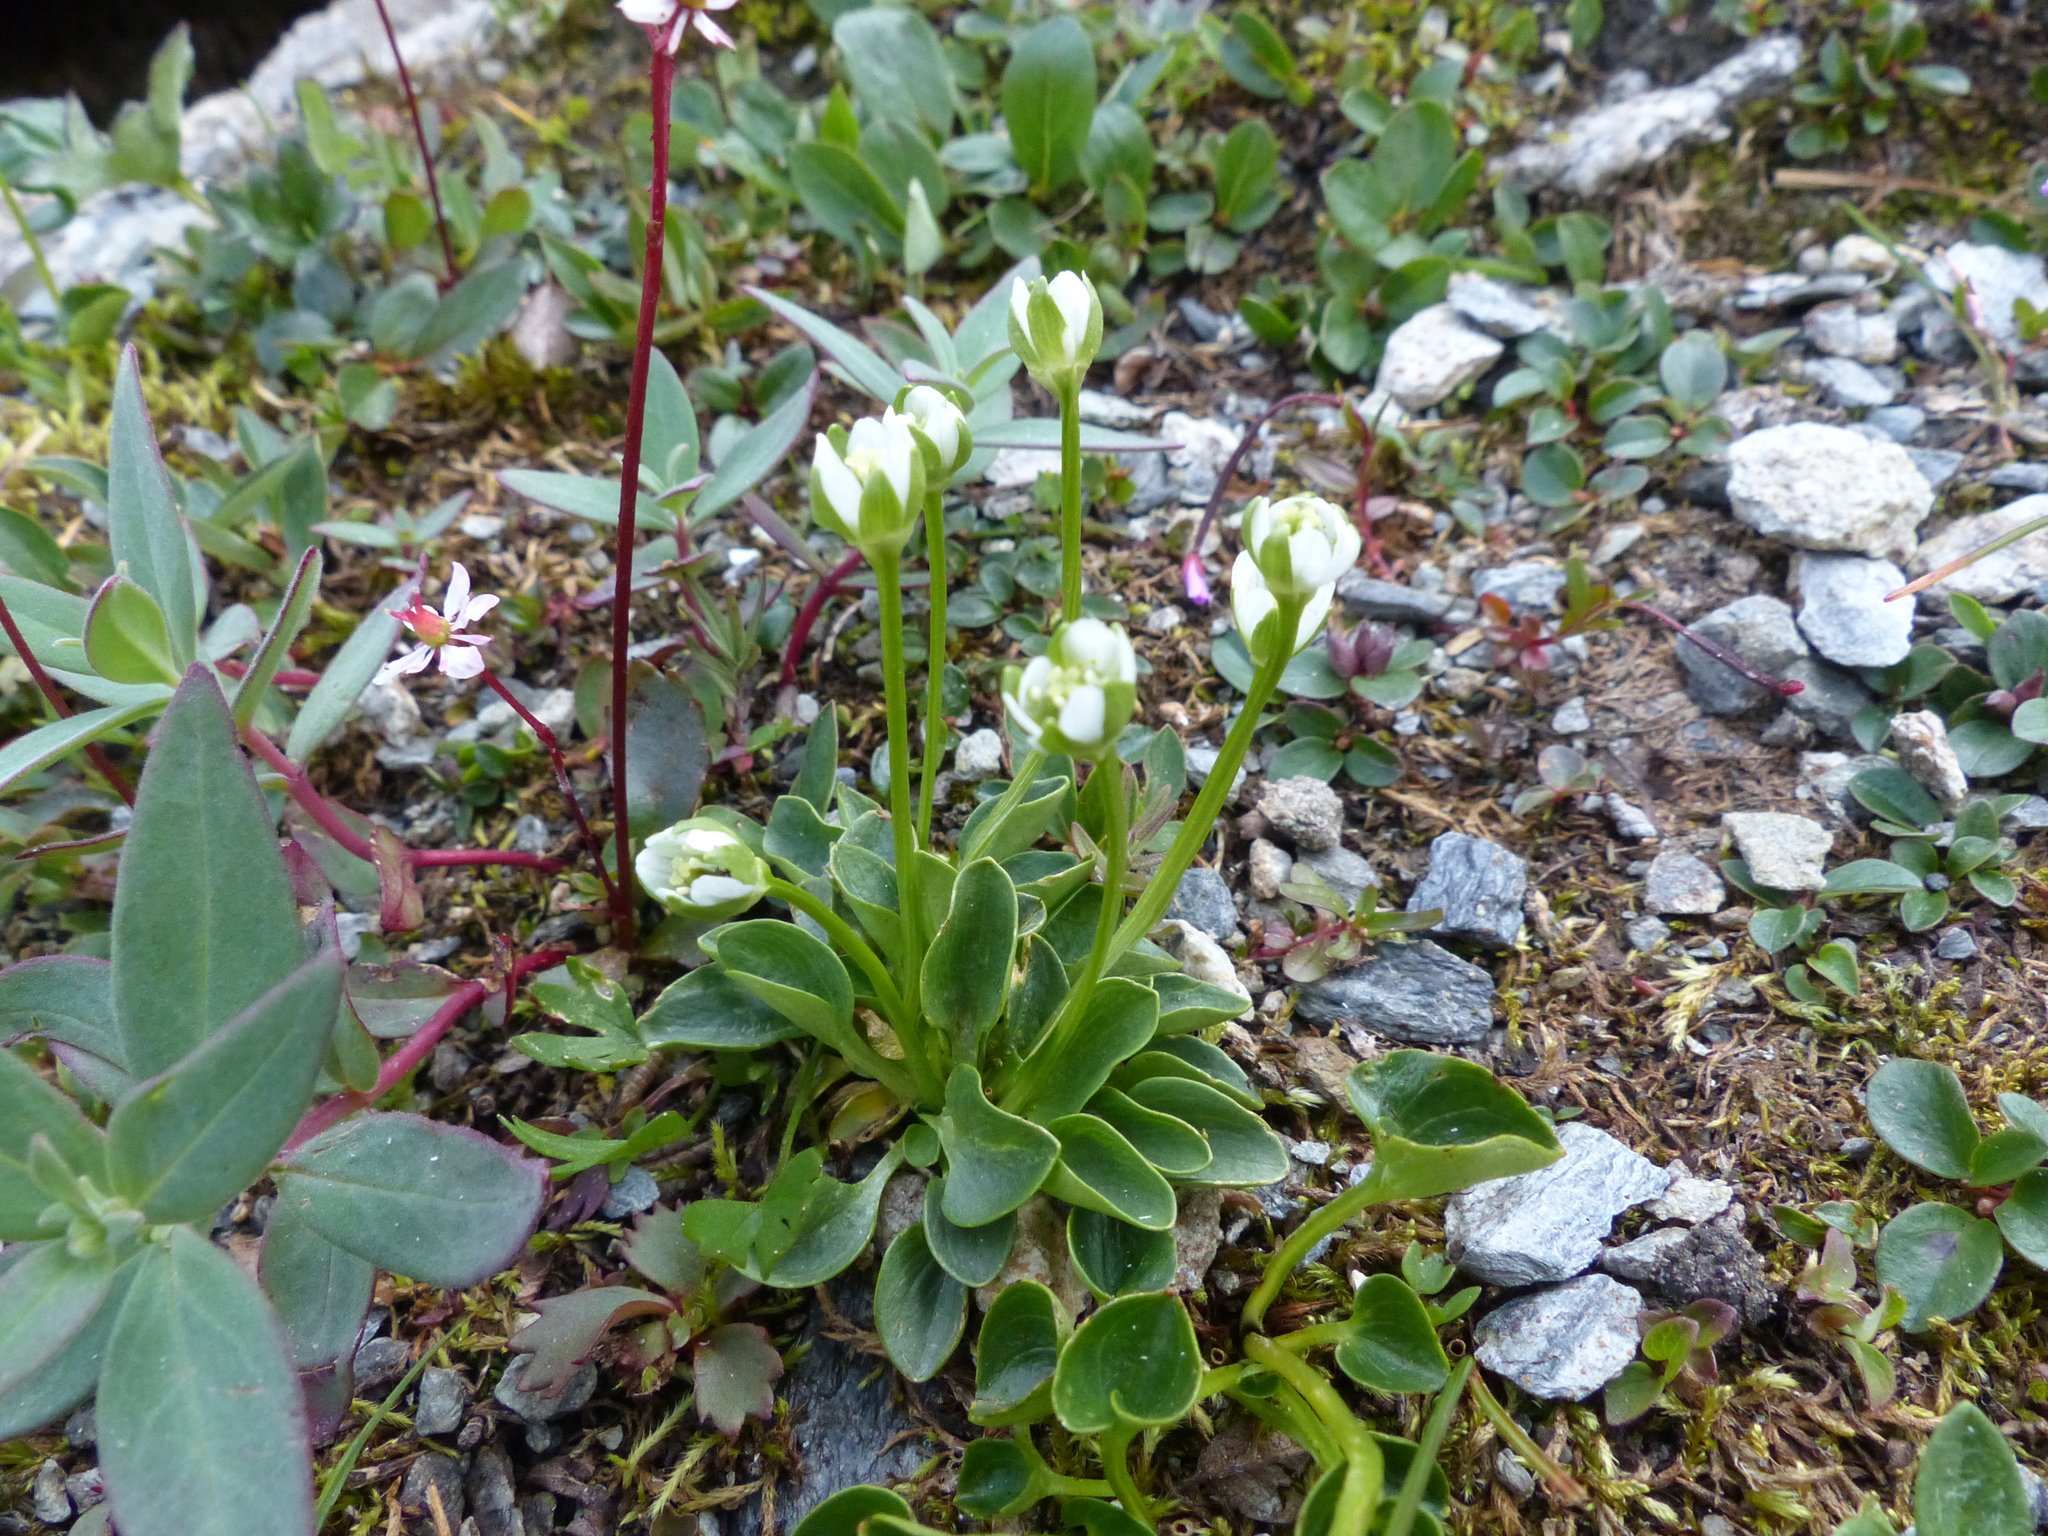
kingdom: Plantae
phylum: Tracheophyta
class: Magnoliopsida
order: Celastrales
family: Parnassiaceae
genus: Parnassia
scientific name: Parnassia kotzebuei
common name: Kotzebue's grass-of-parnassus
